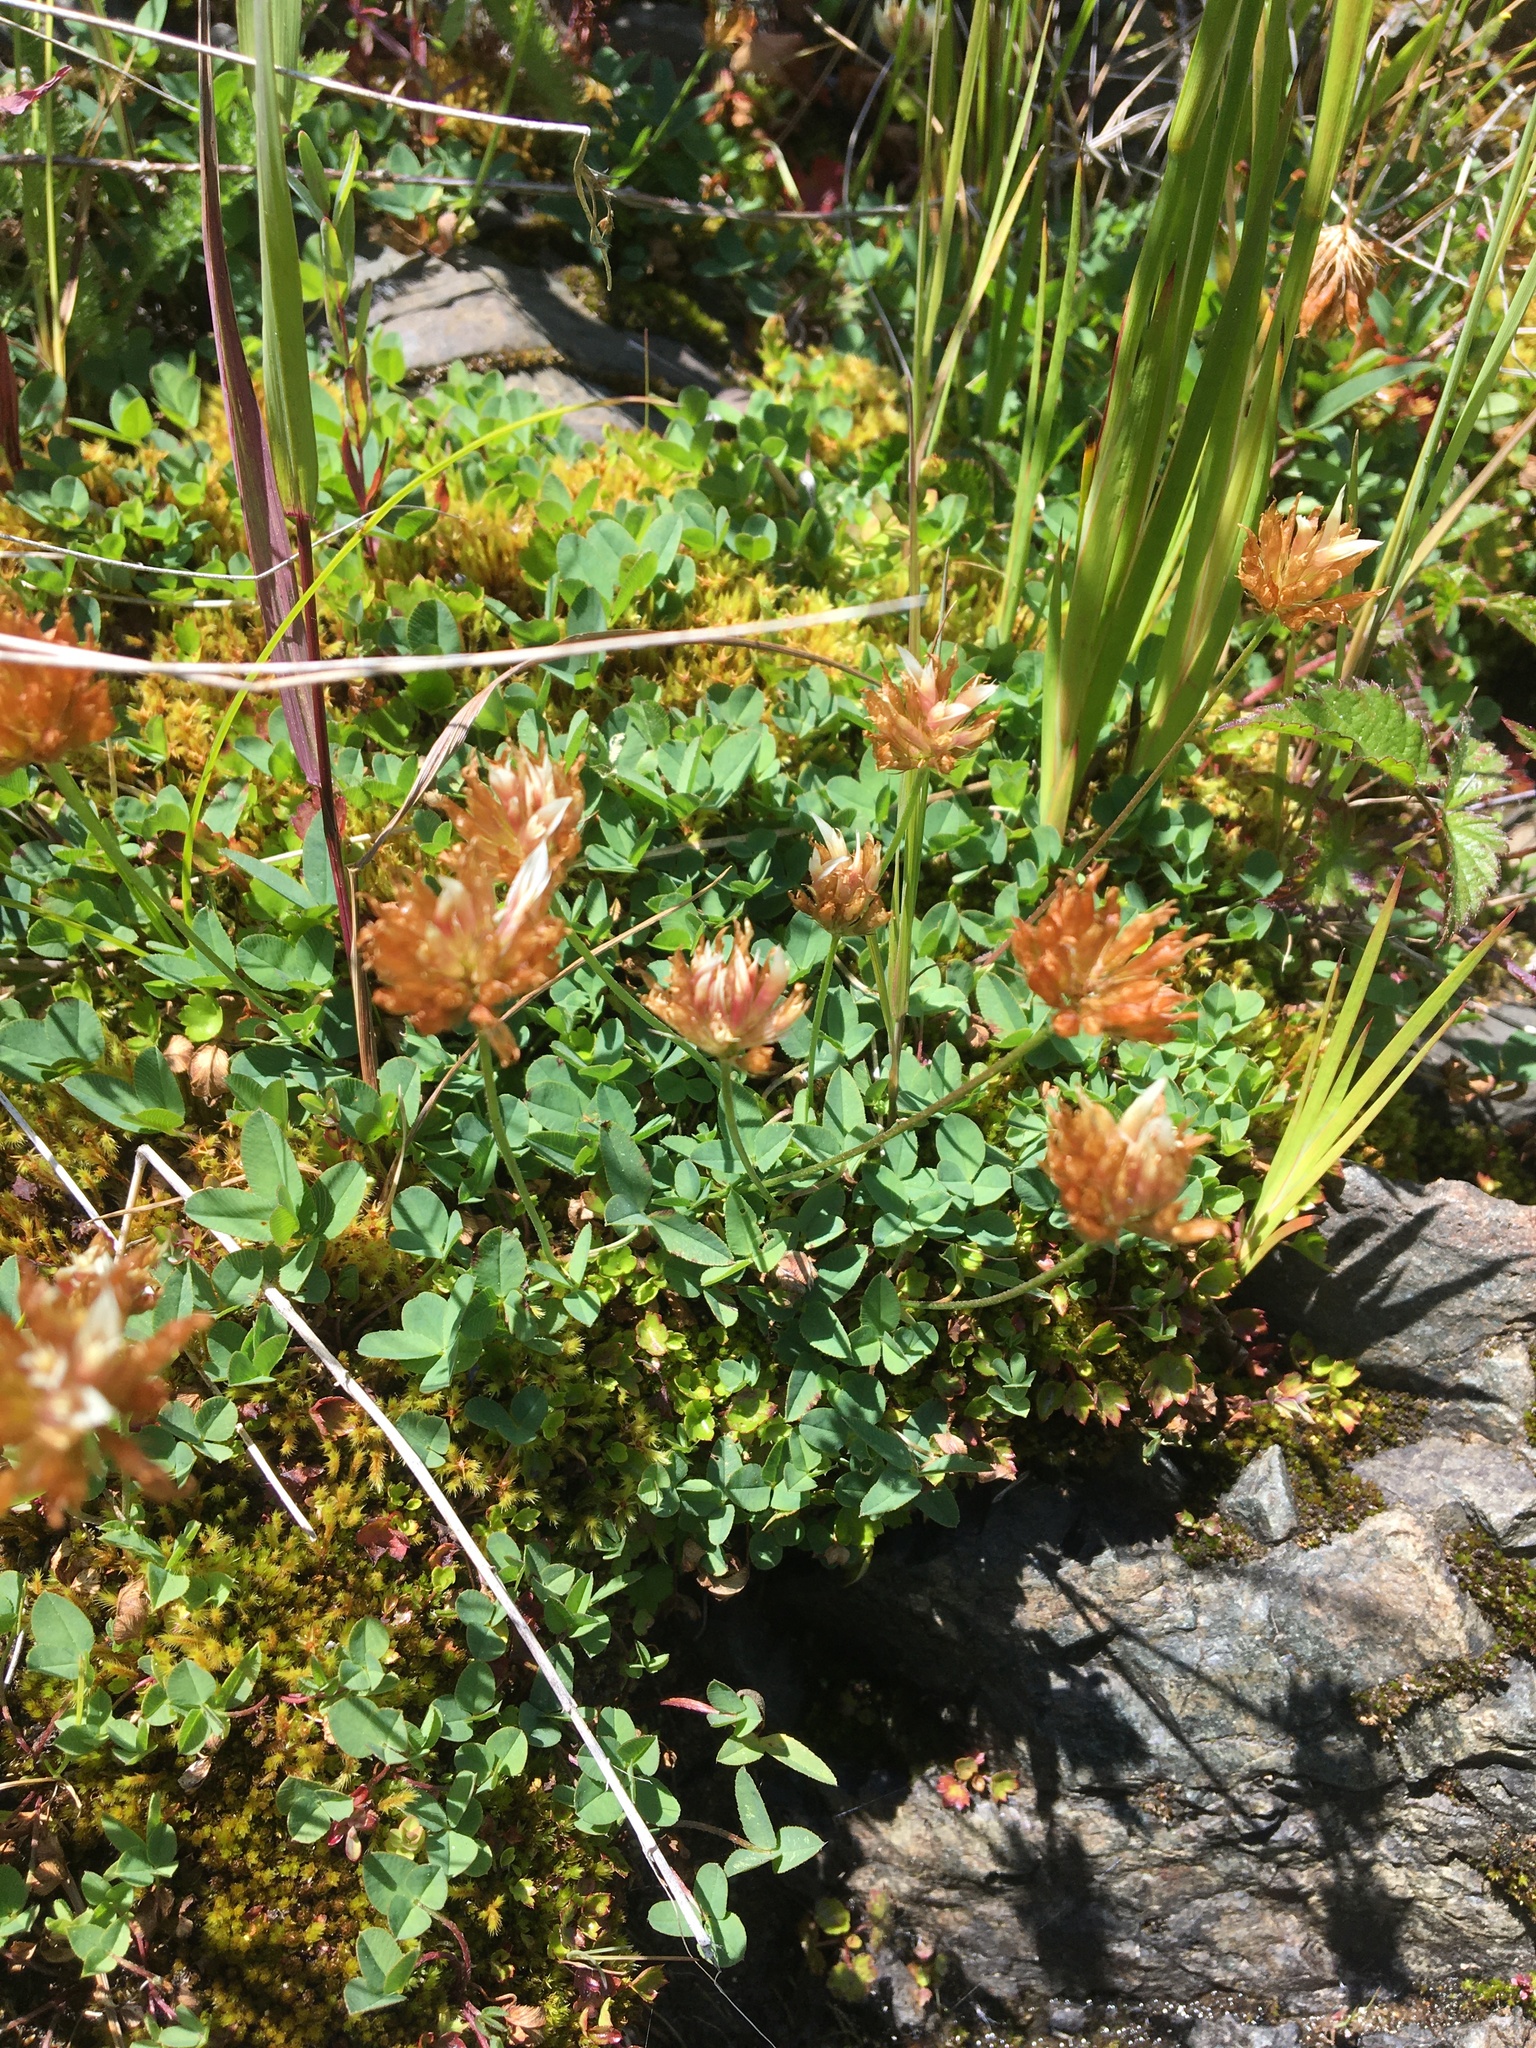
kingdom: Plantae
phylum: Tracheophyta
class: Magnoliopsida
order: Fabales
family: Fabaceae
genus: Trifolium
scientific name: Trifolium longipes
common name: Long-stalk clover
